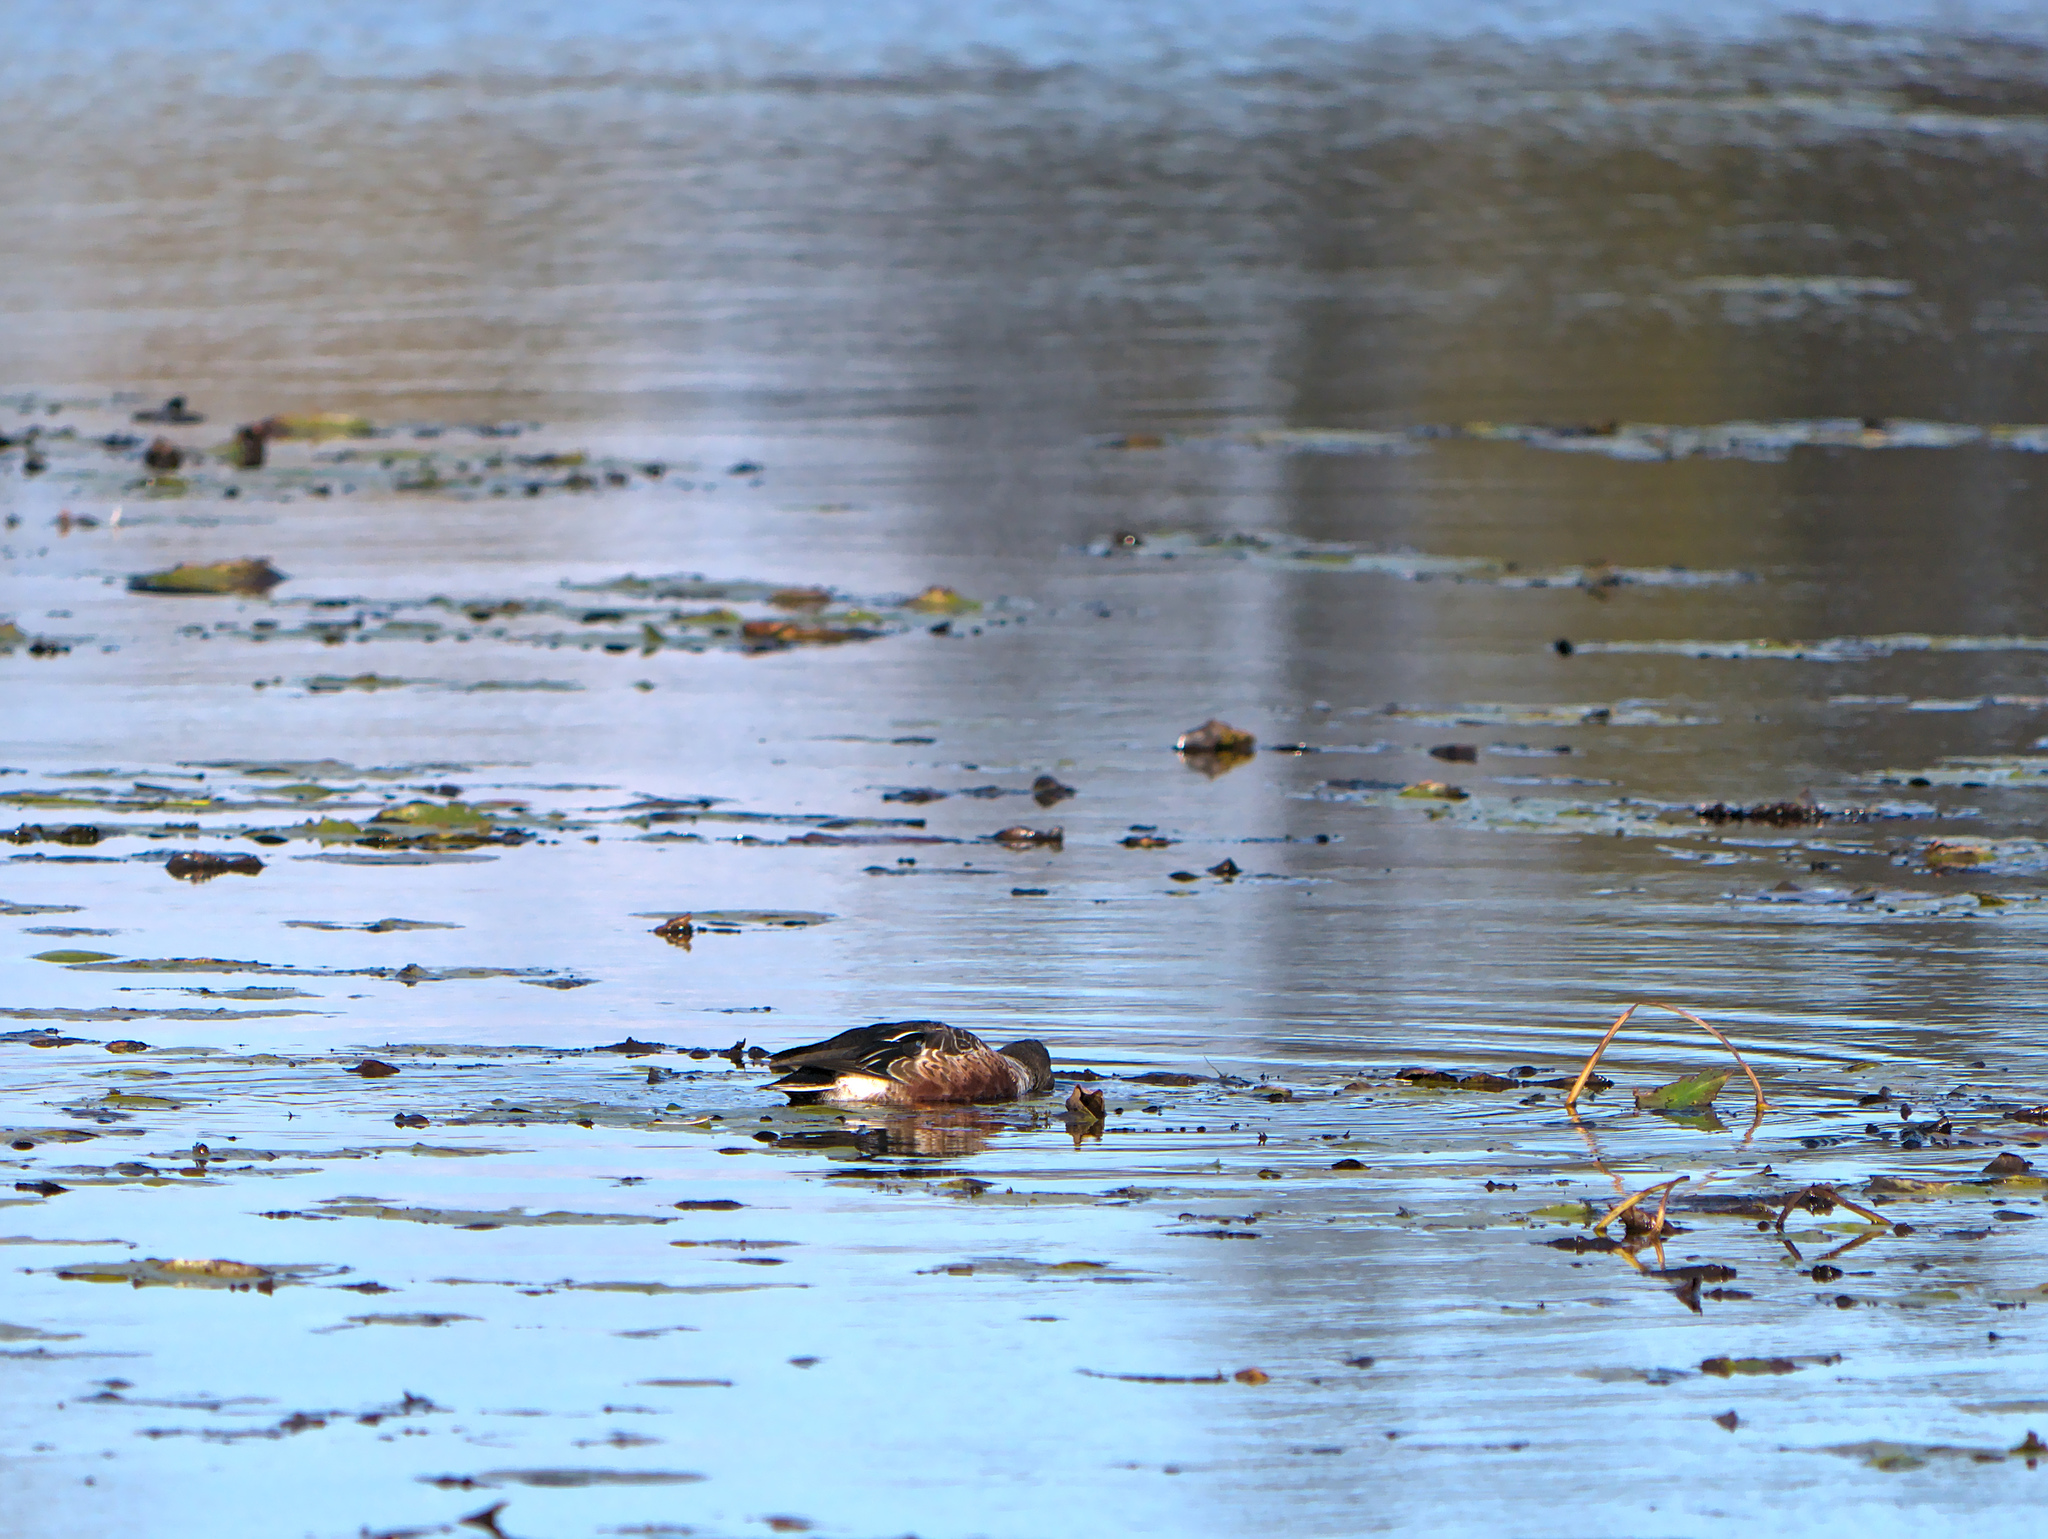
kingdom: Animalia
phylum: Chordata
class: Aves
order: Anseriformes
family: Anatidae
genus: Spatula
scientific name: Spatula clypeata
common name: Northern shoveler
